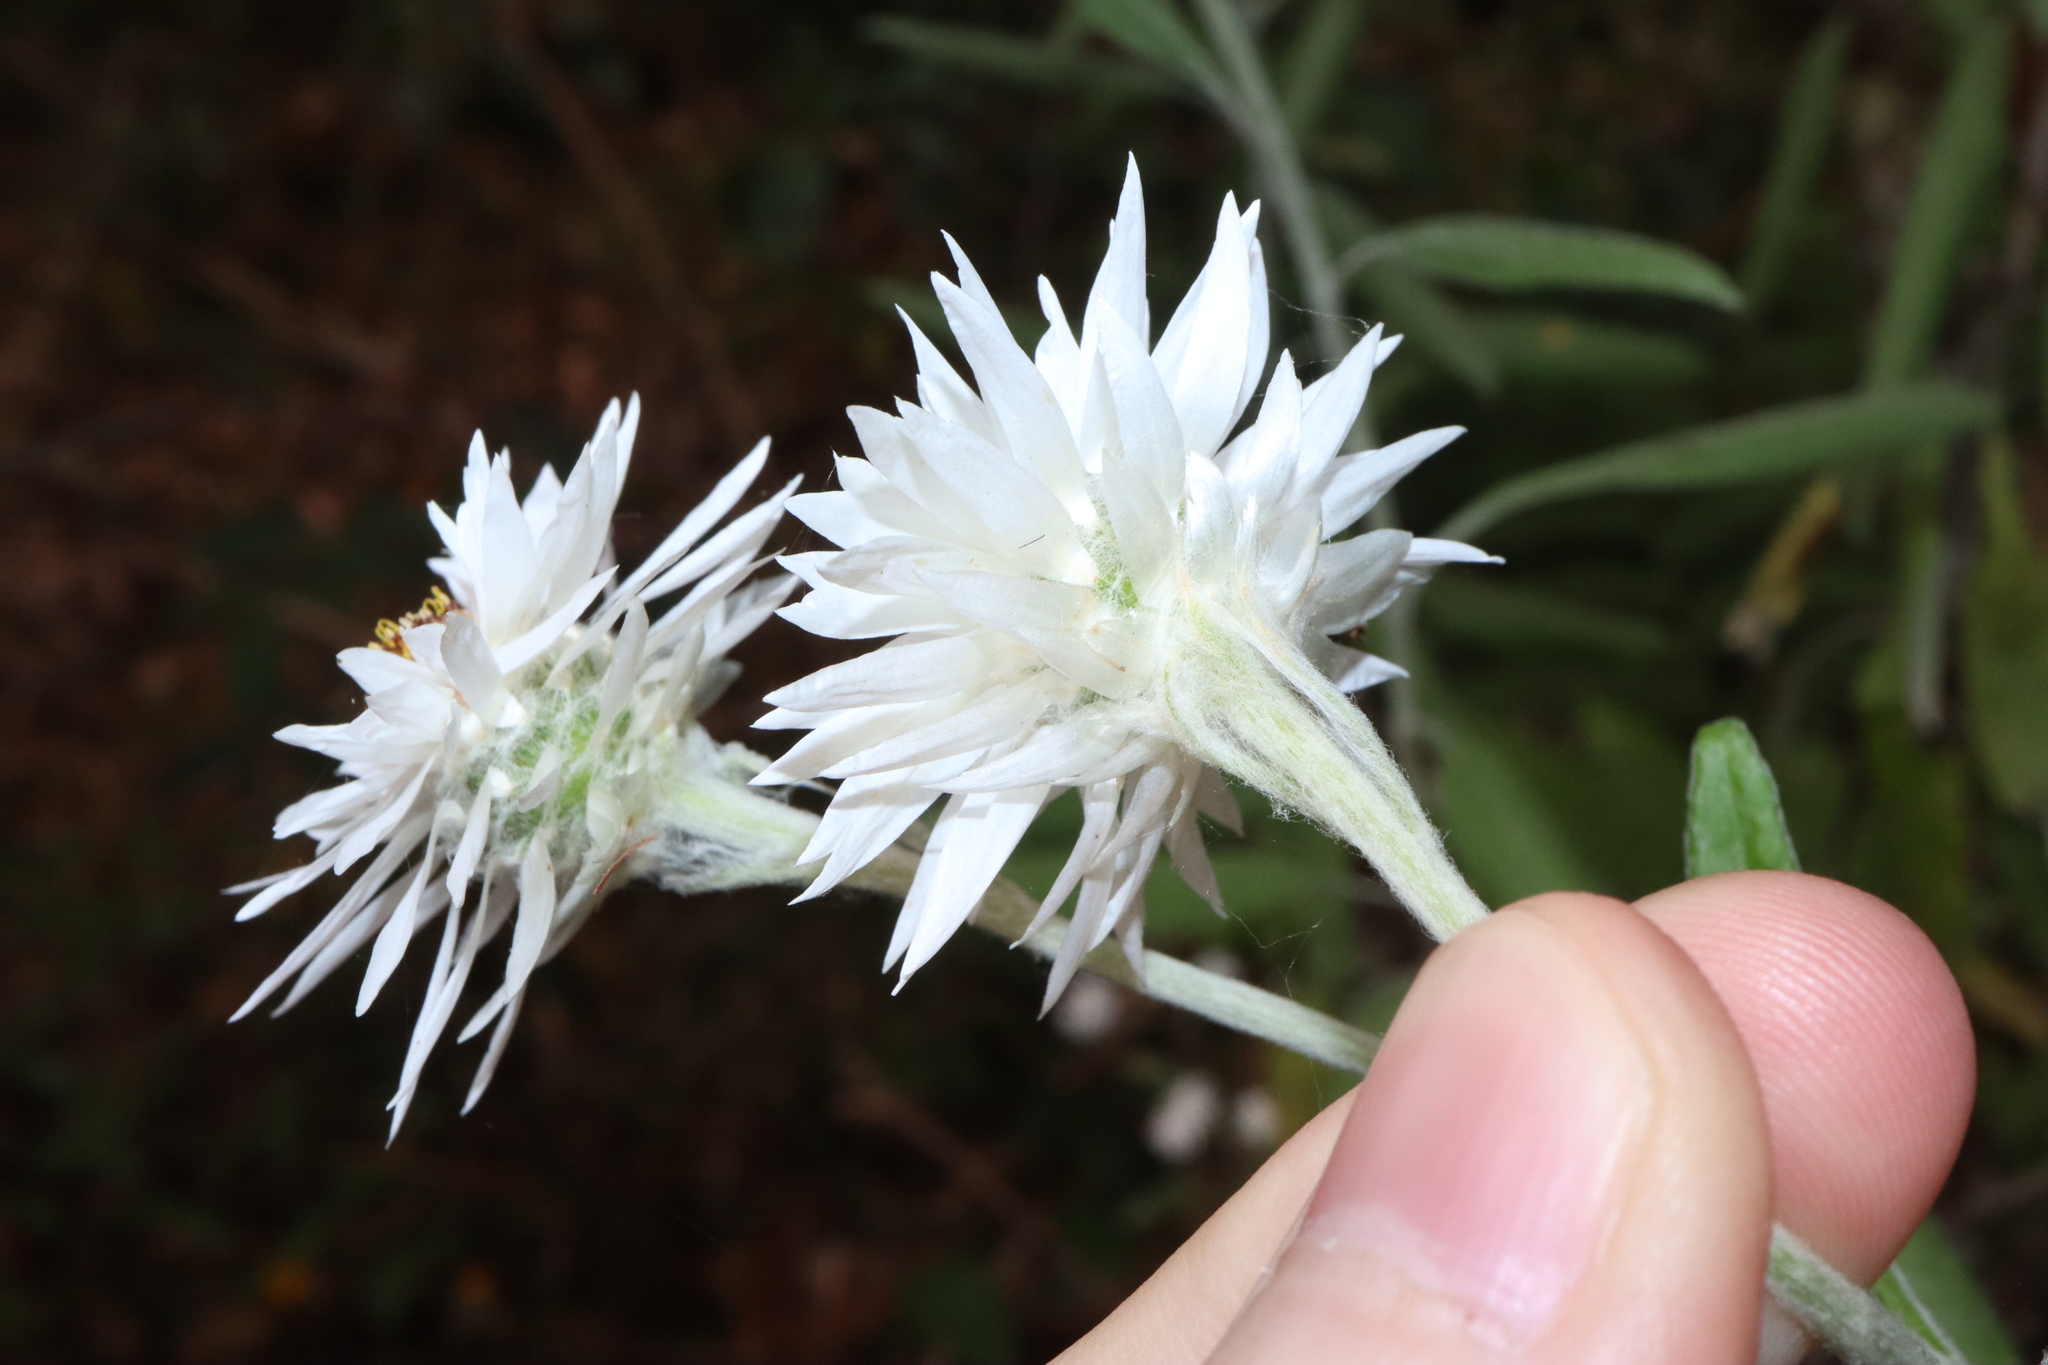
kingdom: Plantae
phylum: Tracheophyta
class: Magnoliopsida
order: Asterales
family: Asteraceae
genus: Leucozoma
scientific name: Leucozoma elatum
